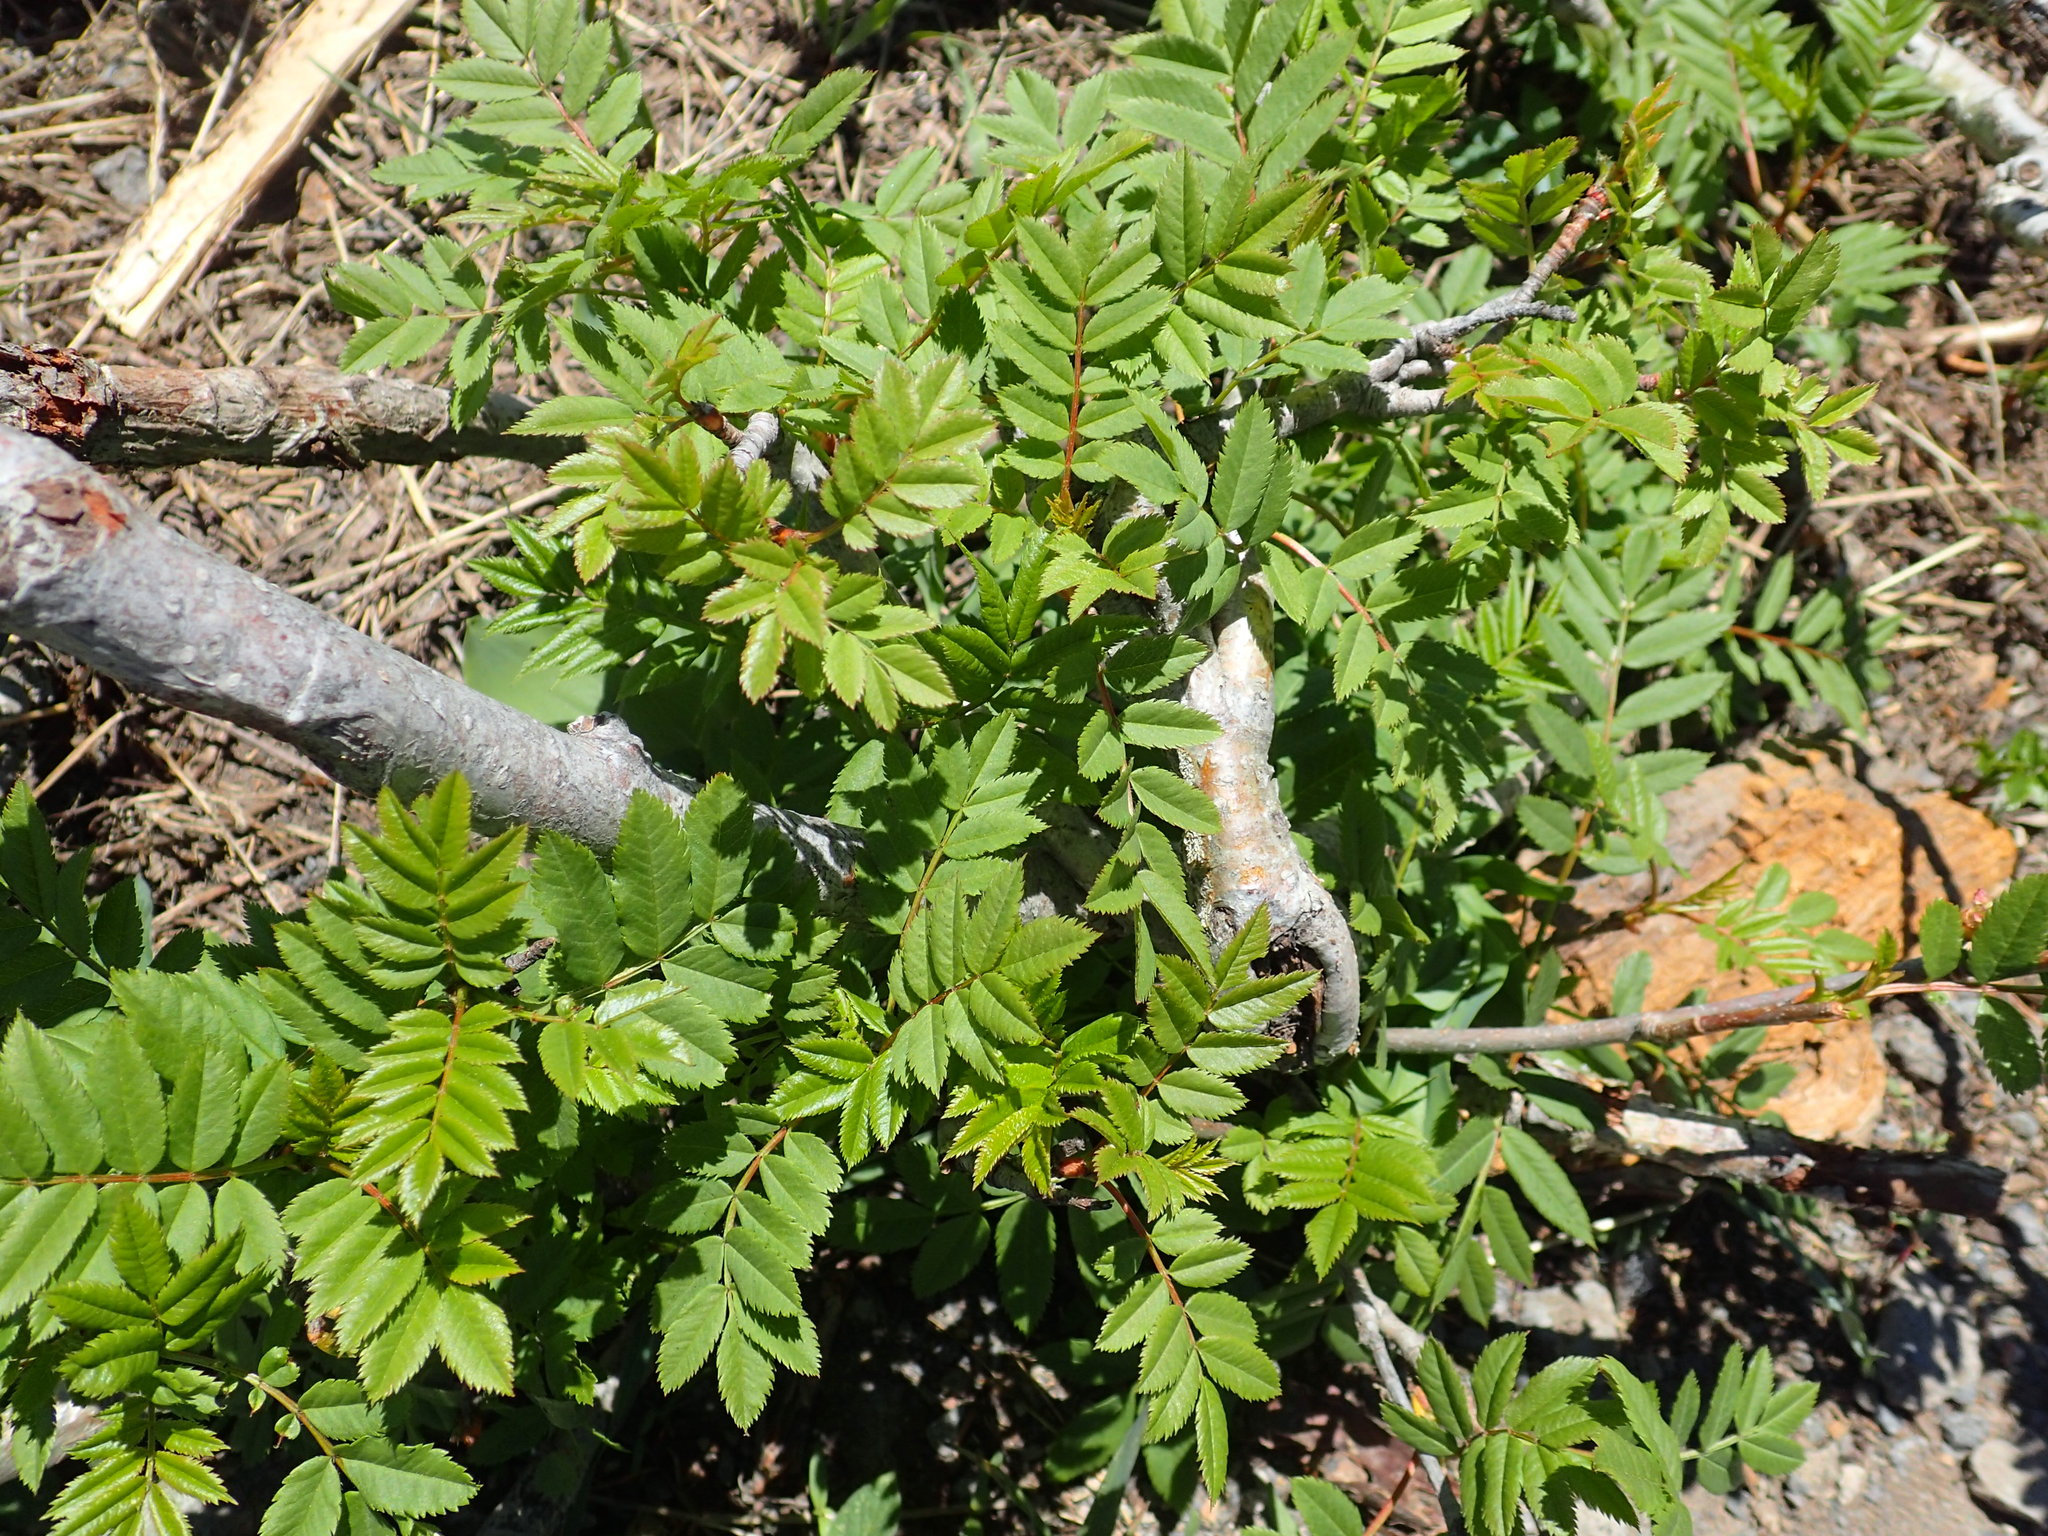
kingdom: Plantae
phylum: Tracheophyta
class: Magnoliopsida
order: Rosales
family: Rosaceae
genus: Sorbus
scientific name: Sorbus scopulina
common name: Greene's mountain-ash
